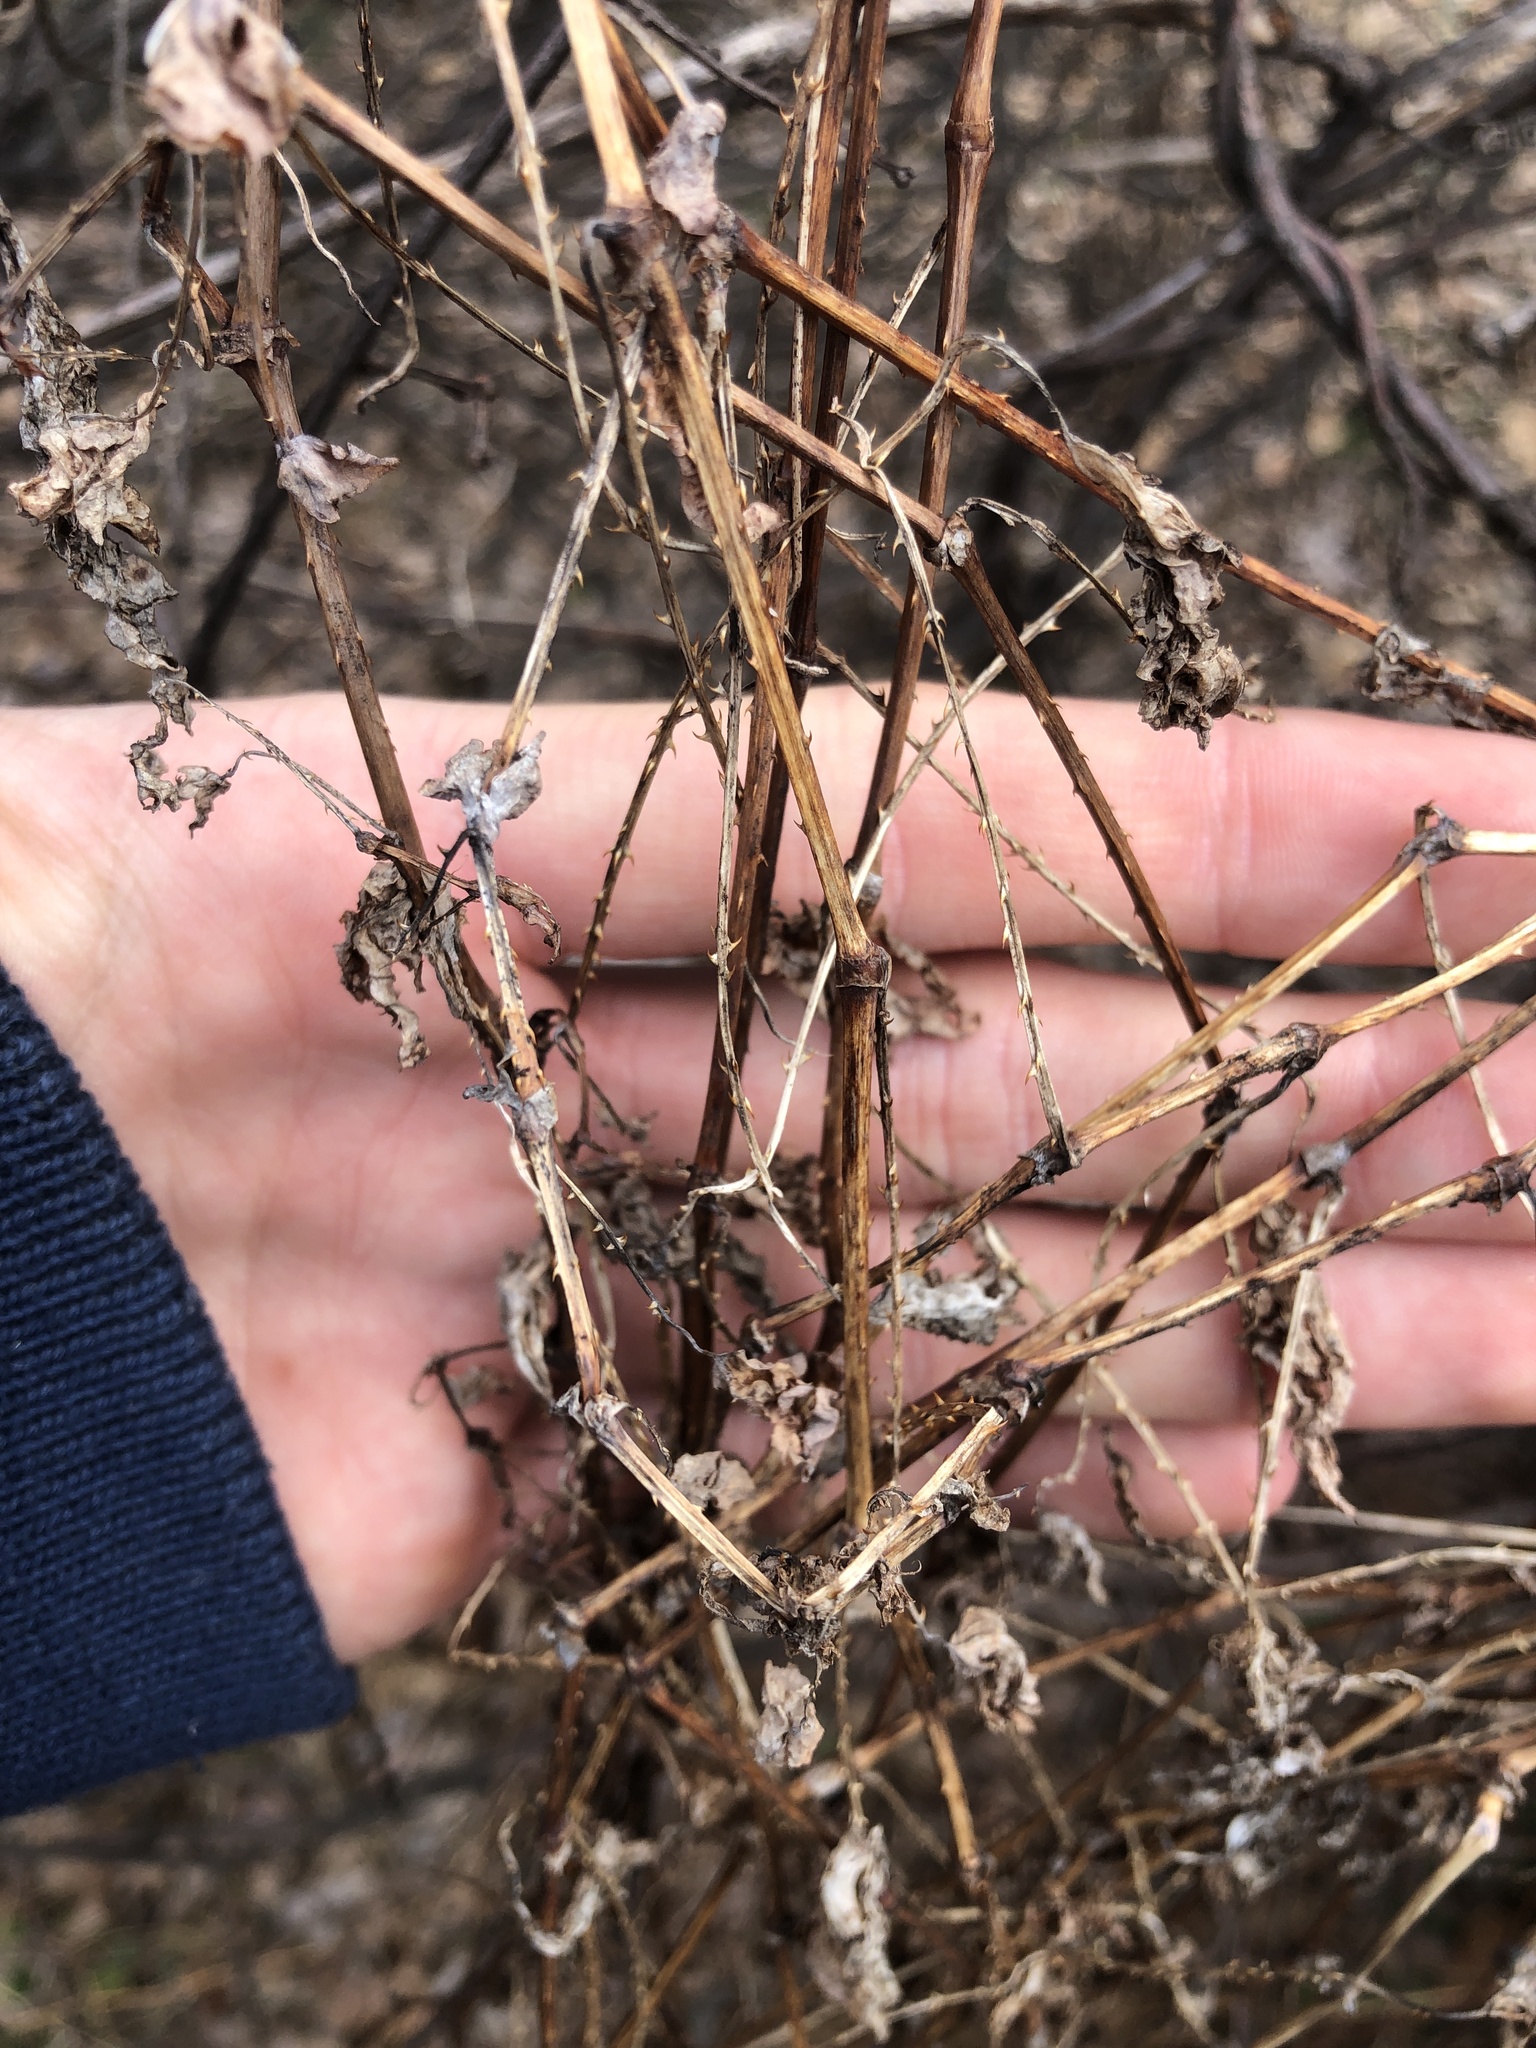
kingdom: Plantae
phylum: Tracheophyta
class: Magnoliopsida
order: Caryophyllales
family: Polygonaceae
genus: Persicaria
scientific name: Persicaria perfoliata
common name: Asiatic tearthumb
